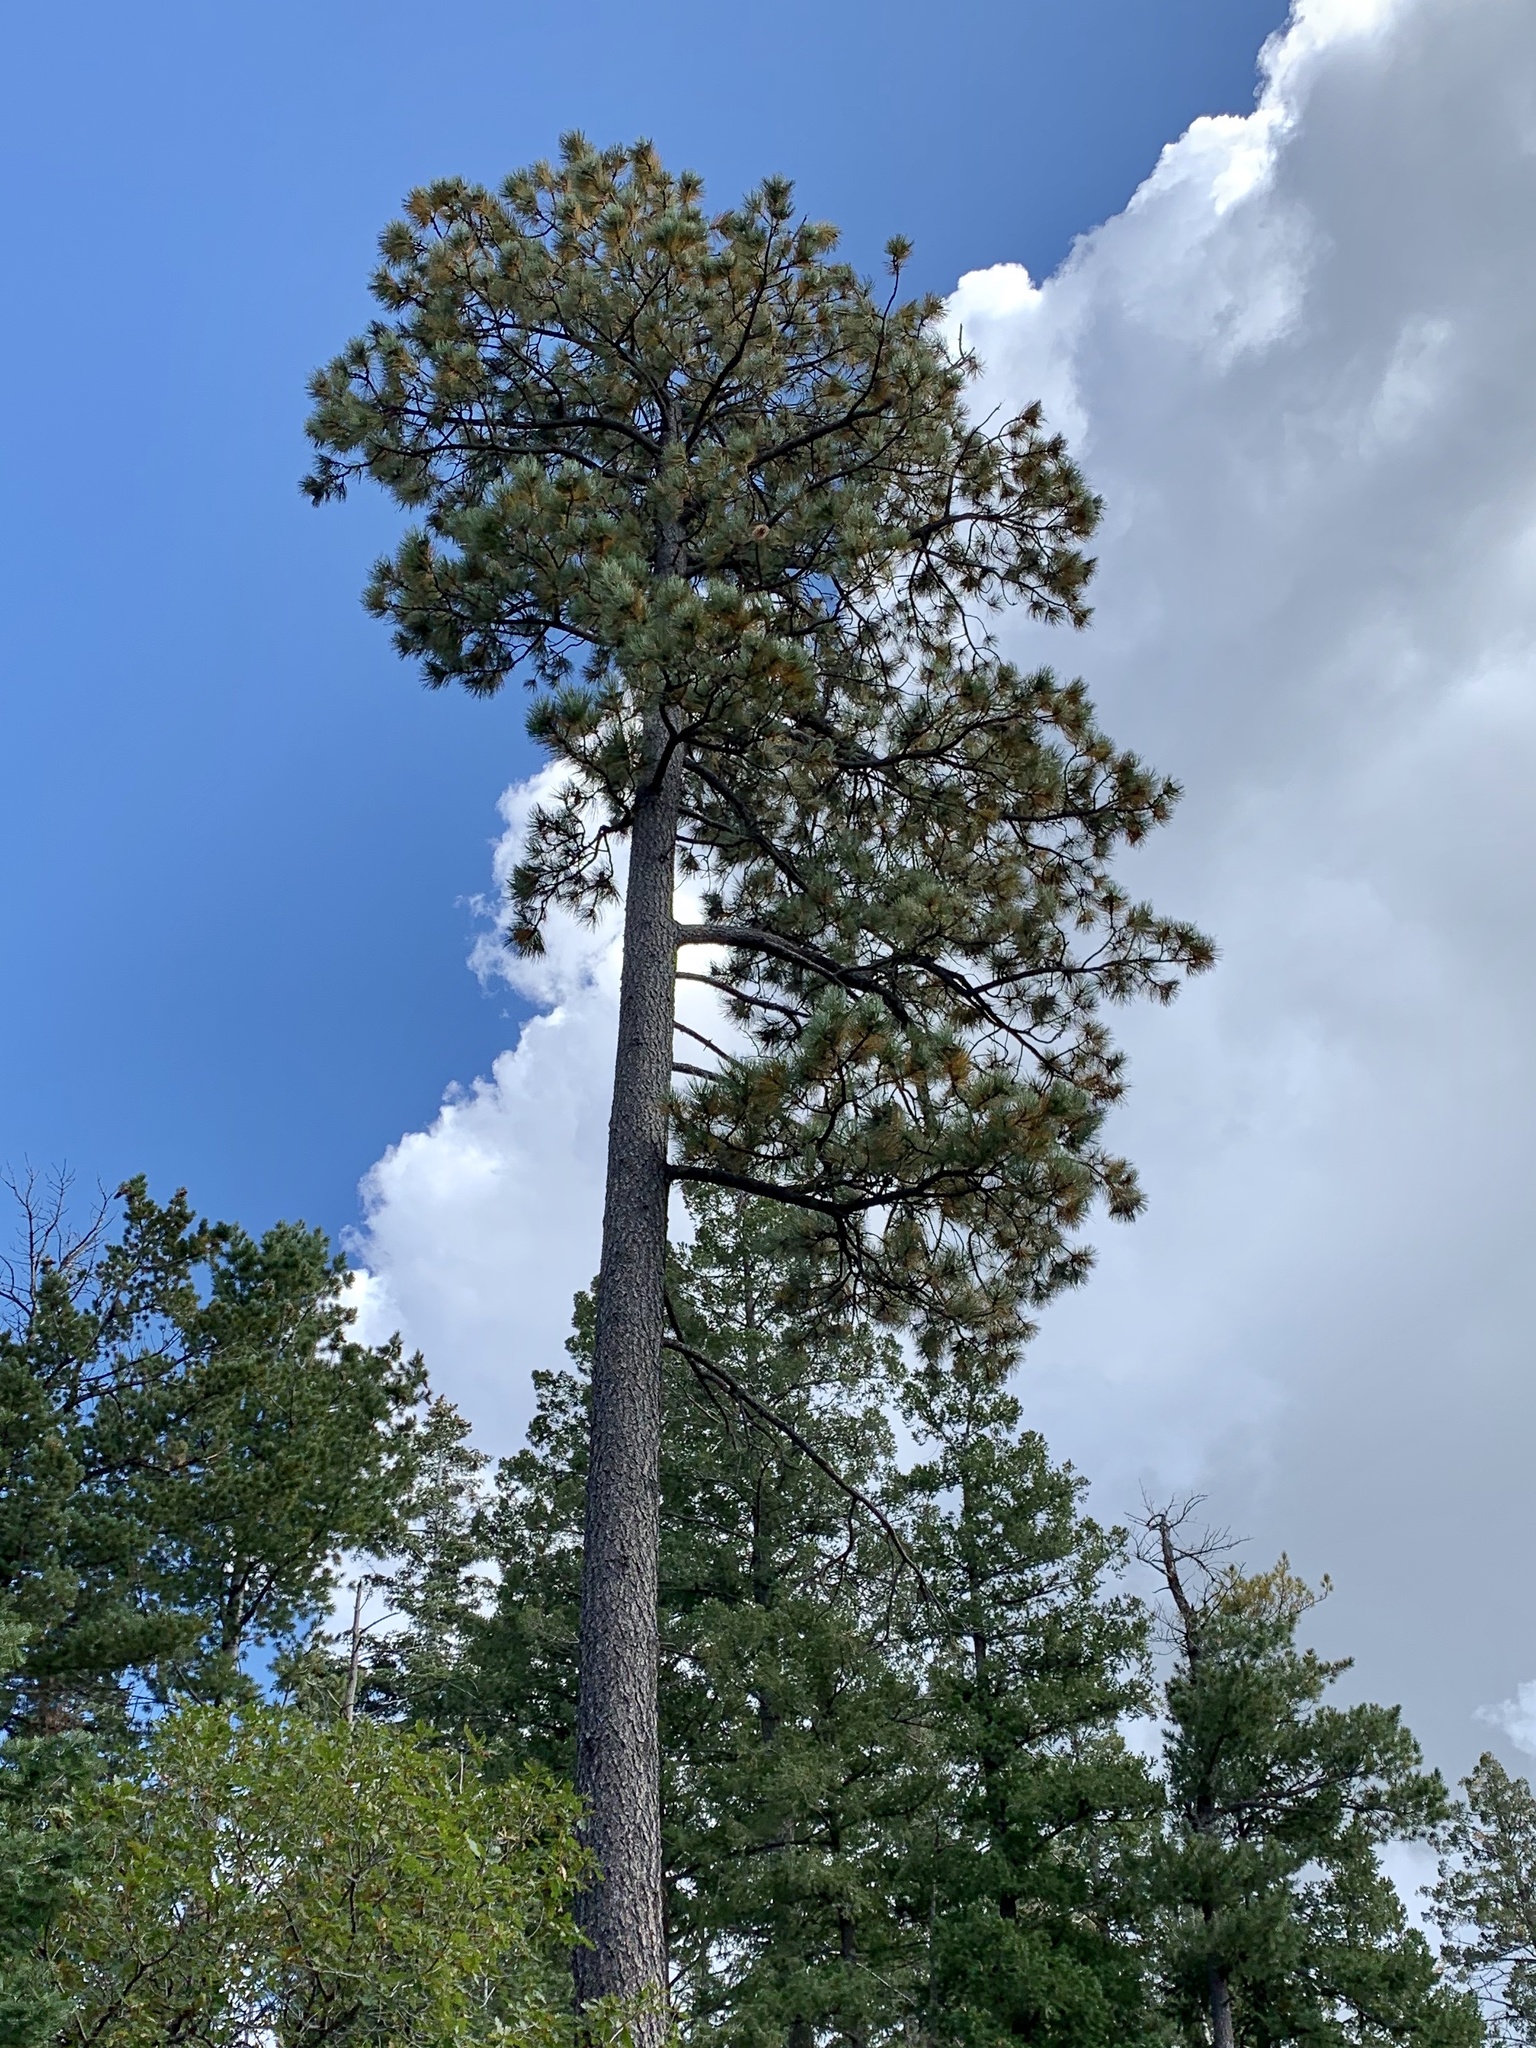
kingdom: Plantae
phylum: Tracheophyta
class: Pinopsida
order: Pinales
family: Pinaceae
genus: Pinus
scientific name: Pinus ponderosa
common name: Western yellow-pine
